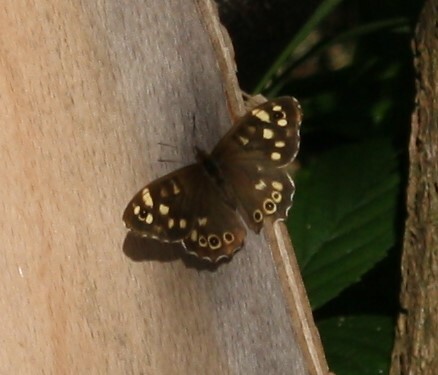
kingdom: Animalia
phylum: Arthropoda
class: Insecta
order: Lepidoptera
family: Nymphalidae
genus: Pararge
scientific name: Pararge aegeria
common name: Speckled wood
